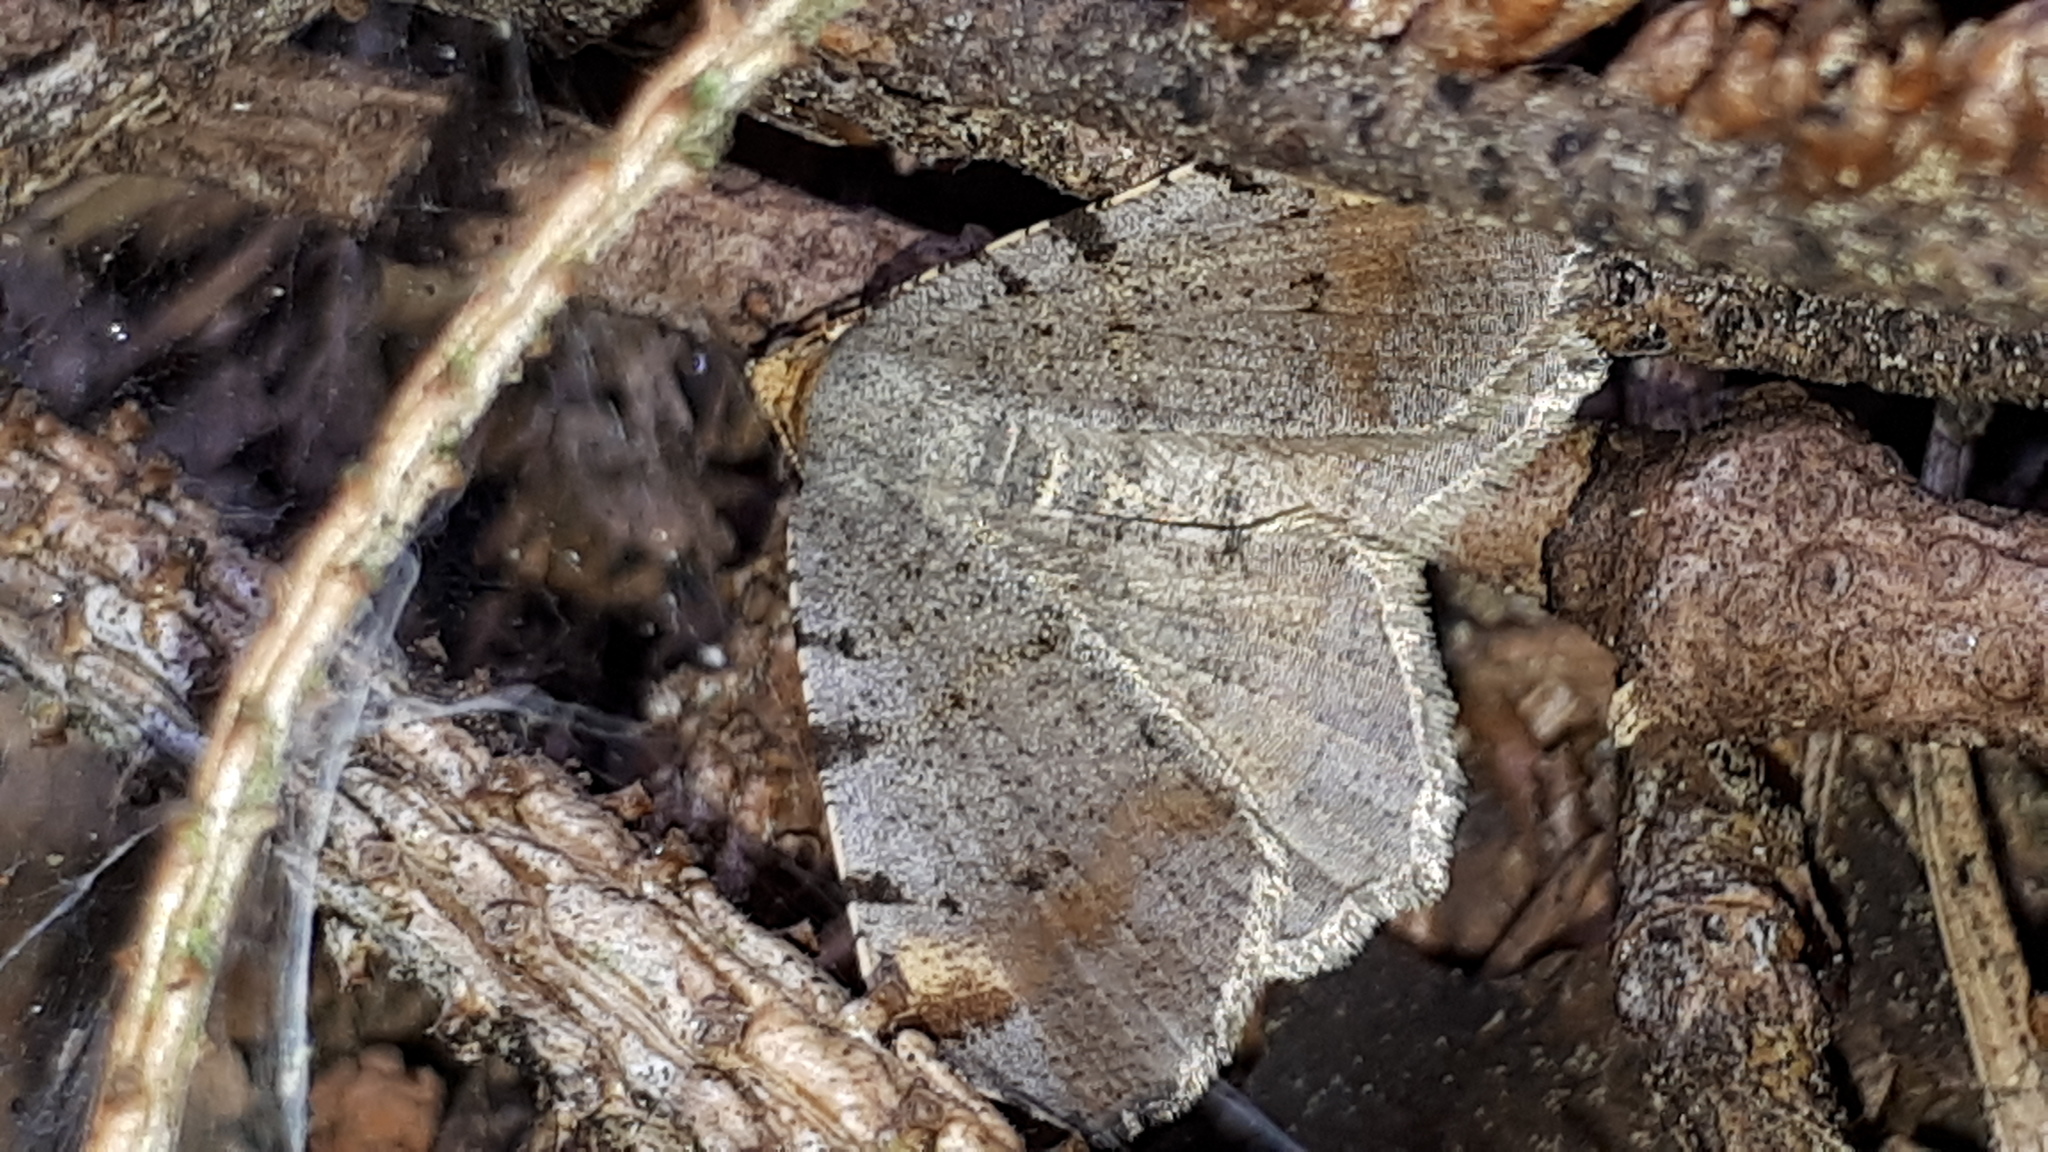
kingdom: Animalia
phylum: Arthropoda
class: Insecta
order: Lepidoptera
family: Geometridae
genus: Macaria
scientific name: Macaria liturata
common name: Tawny-barred angle
